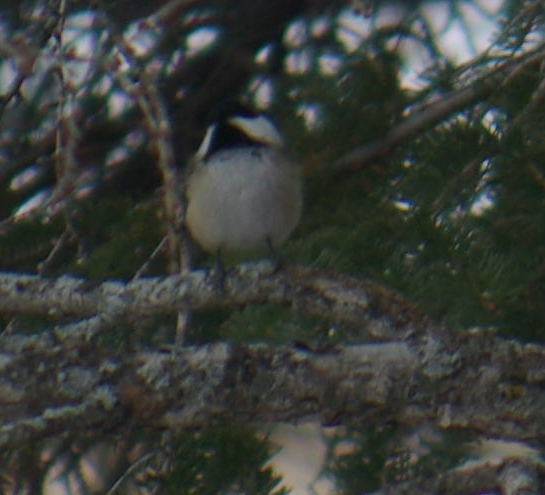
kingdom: Animalia
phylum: Chordata
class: Aves
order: Passeriformes
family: Paridae
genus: Poecile
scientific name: Poecile atricapillus
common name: Black-capped chickadee
